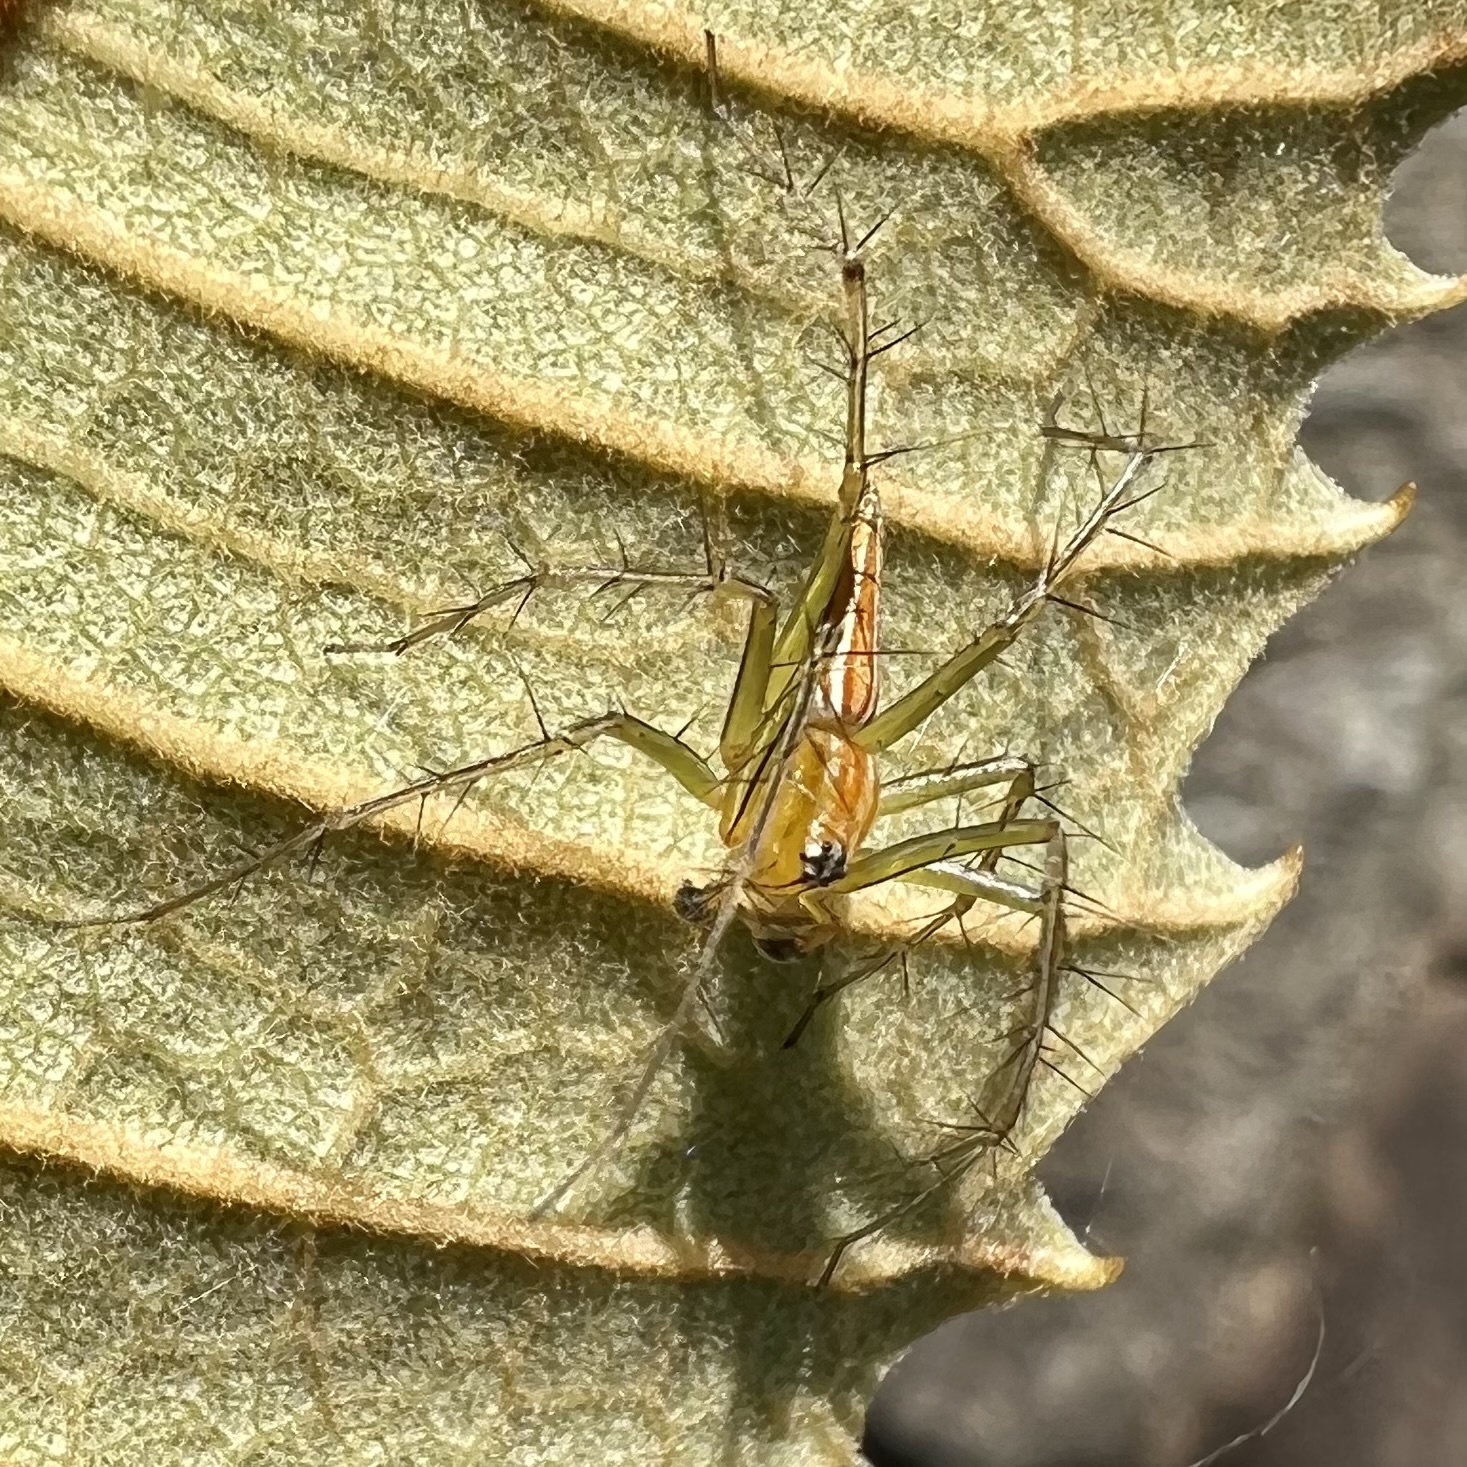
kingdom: Animalia
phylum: Arthropoda
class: Arachnida
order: Araneae
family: Oxyopidae
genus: Oxyopes
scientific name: Oxyopes macilentus
